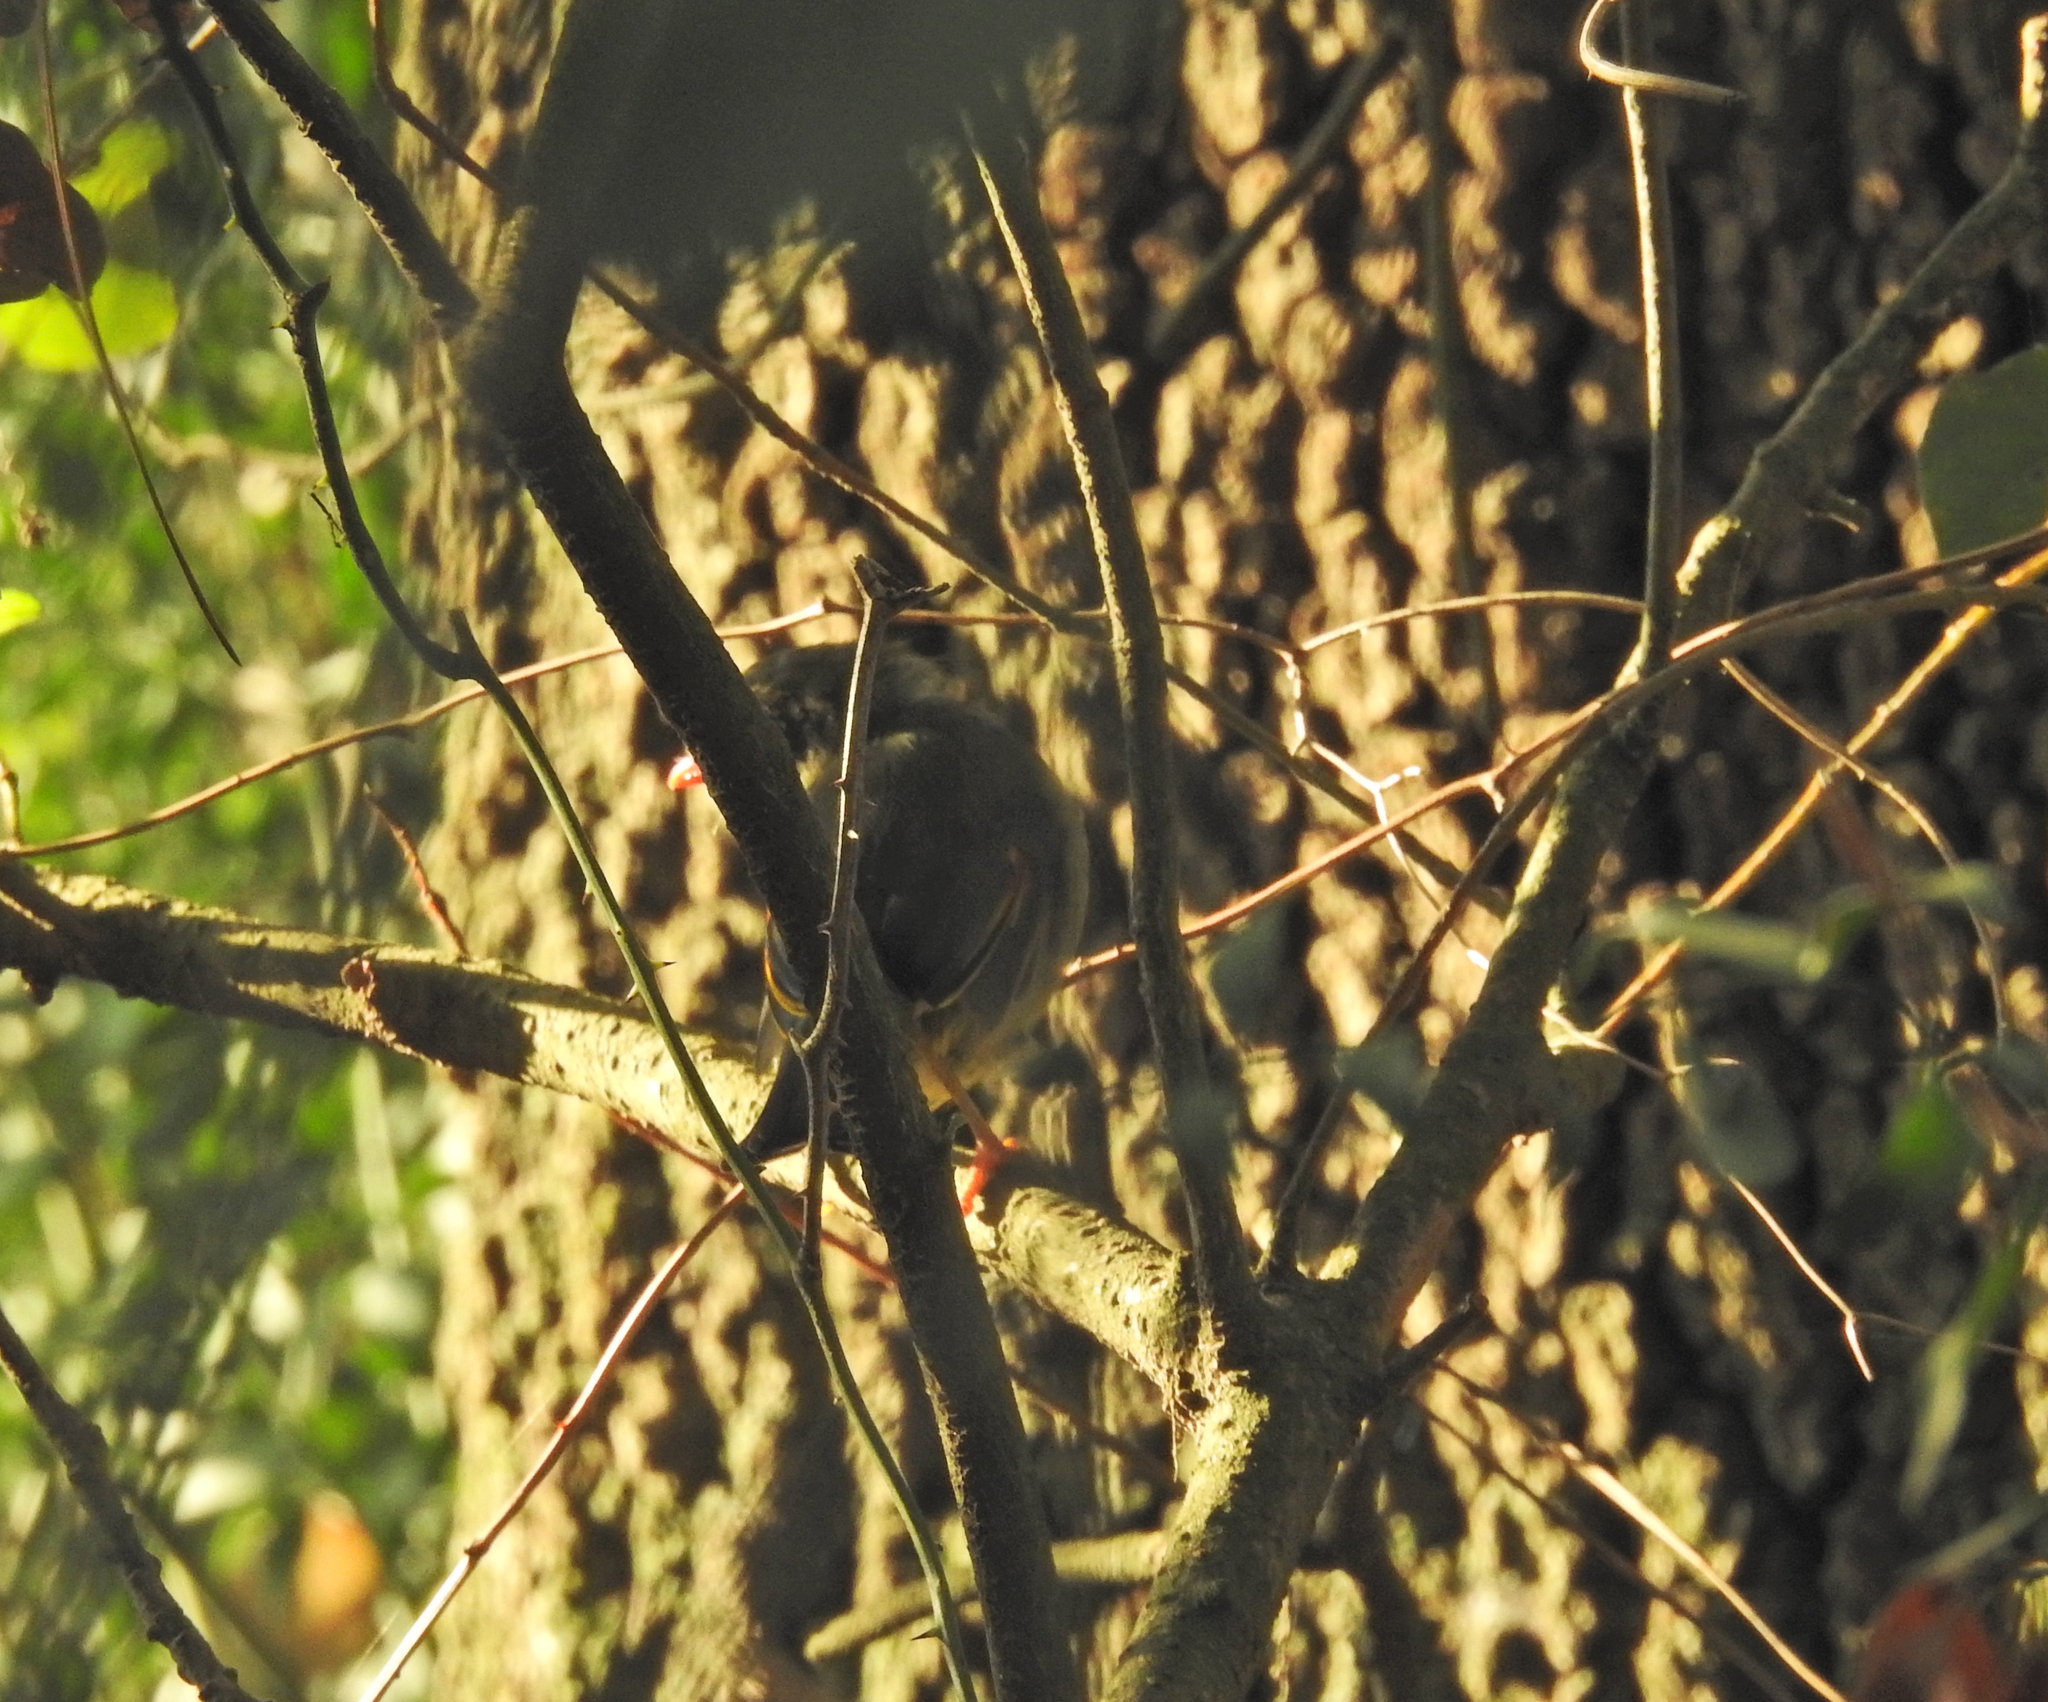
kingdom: Animalia
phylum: Chordata
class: Aves
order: Passeriformes
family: Leiothrichidae
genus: Leiothrix
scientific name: Leiothrix lutea
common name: Red-billed leiothrix
